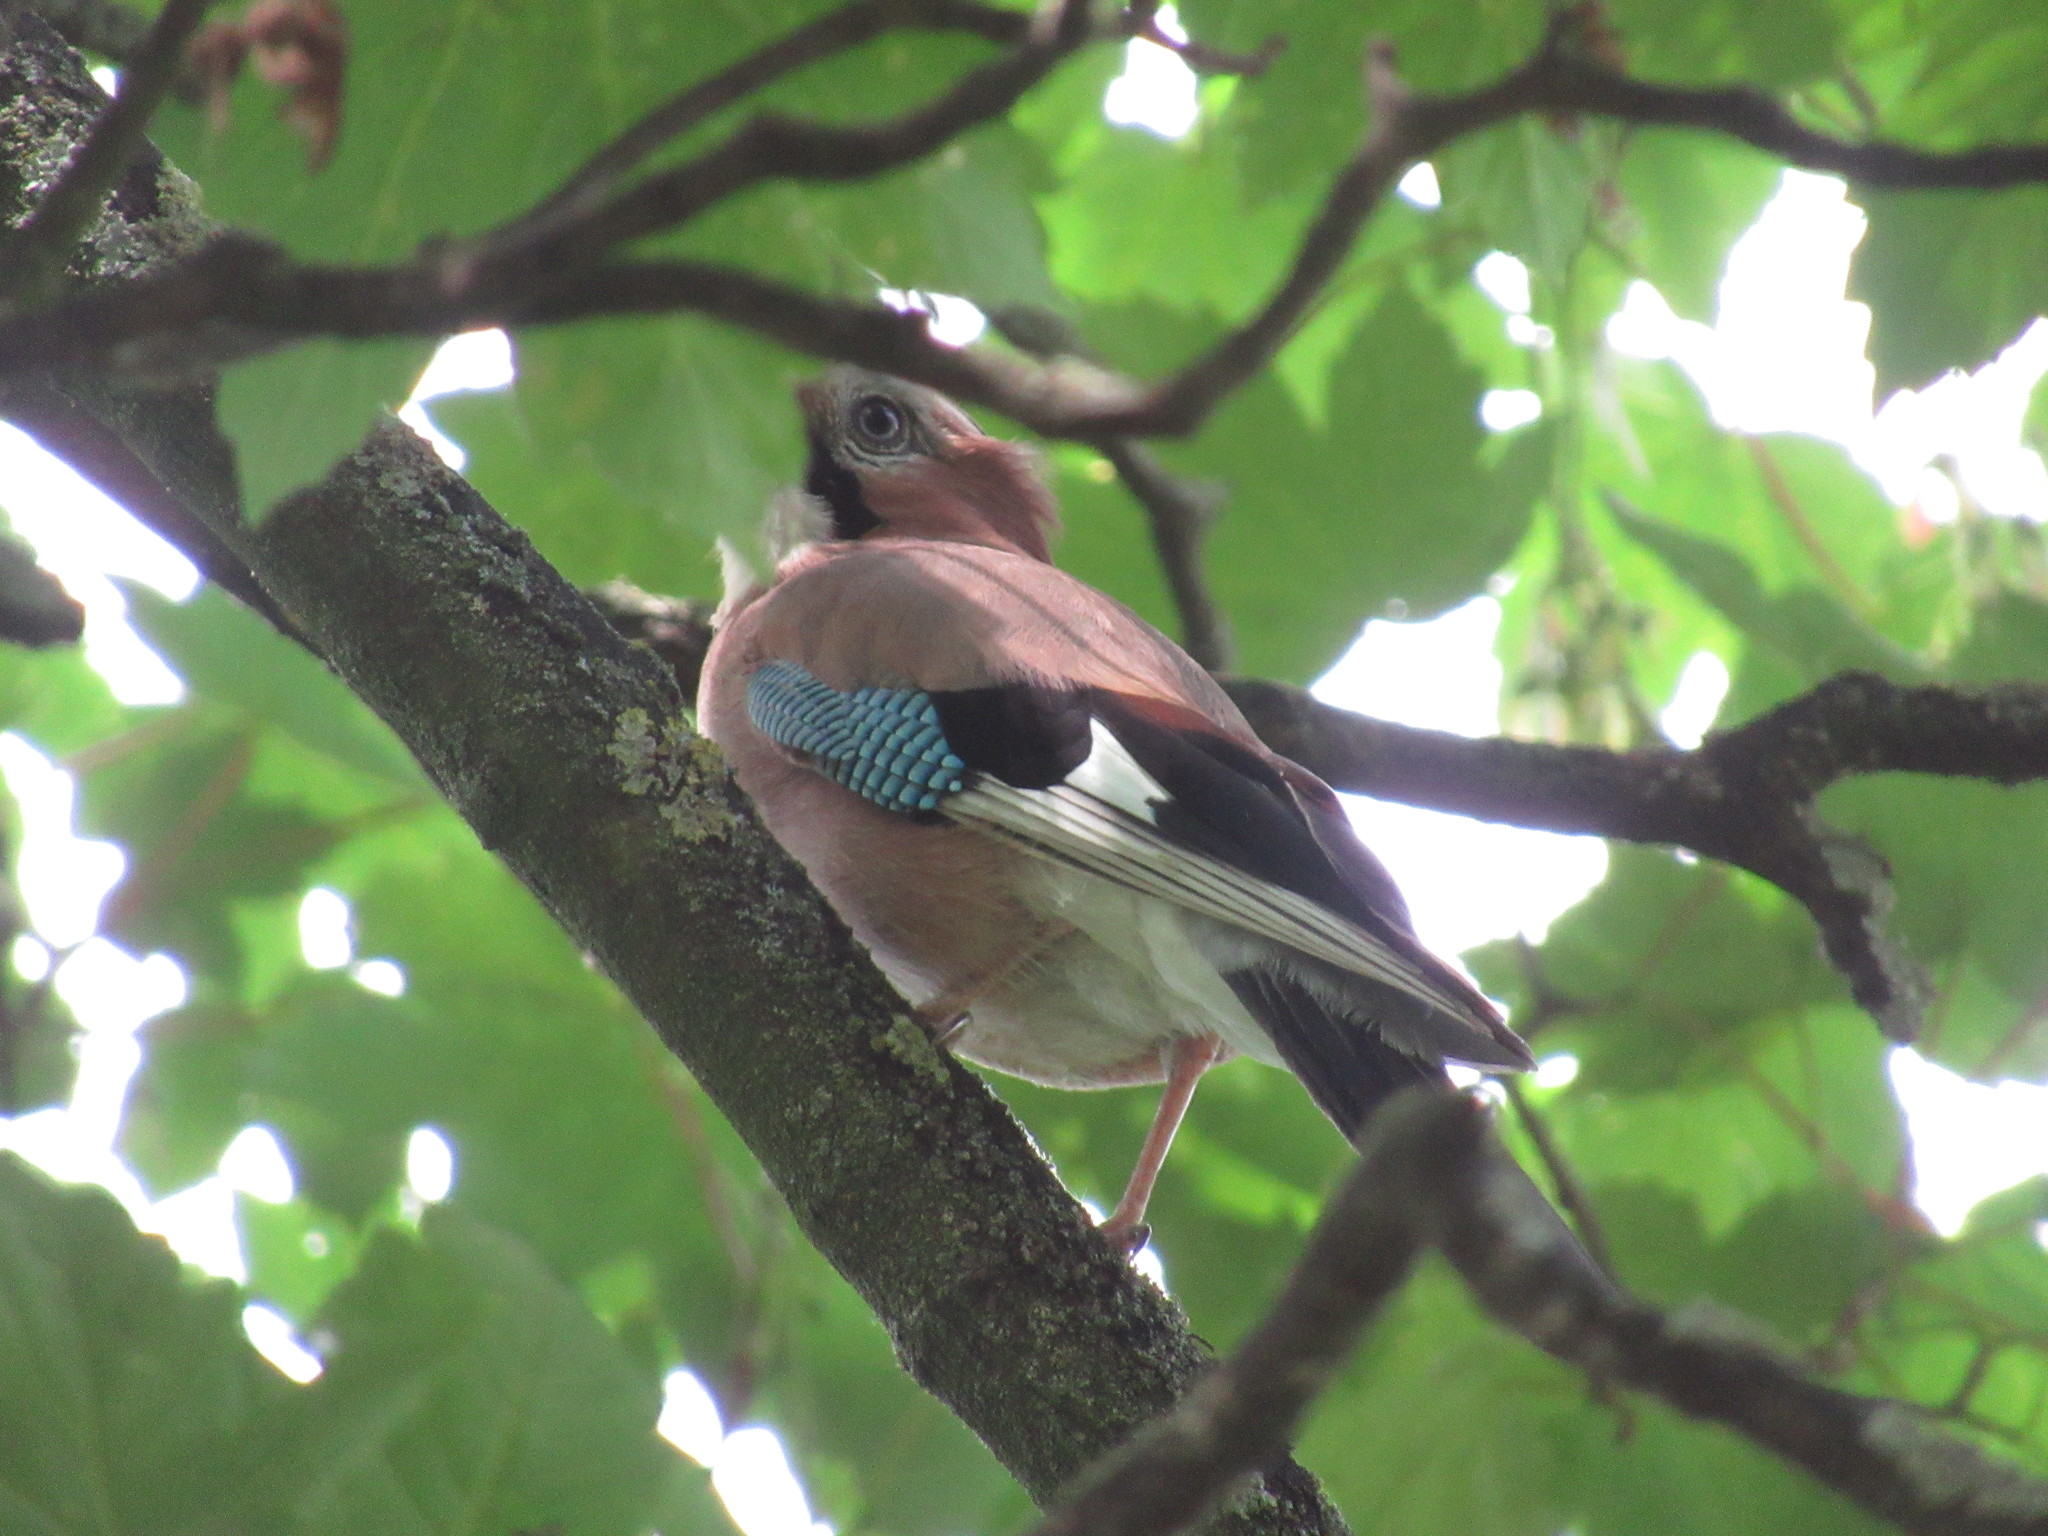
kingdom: Animalia
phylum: Chordata
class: Aves
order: Passeriformes
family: Corvidae
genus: Garrulus
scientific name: Garrulus glandarius
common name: Eurasian jay
